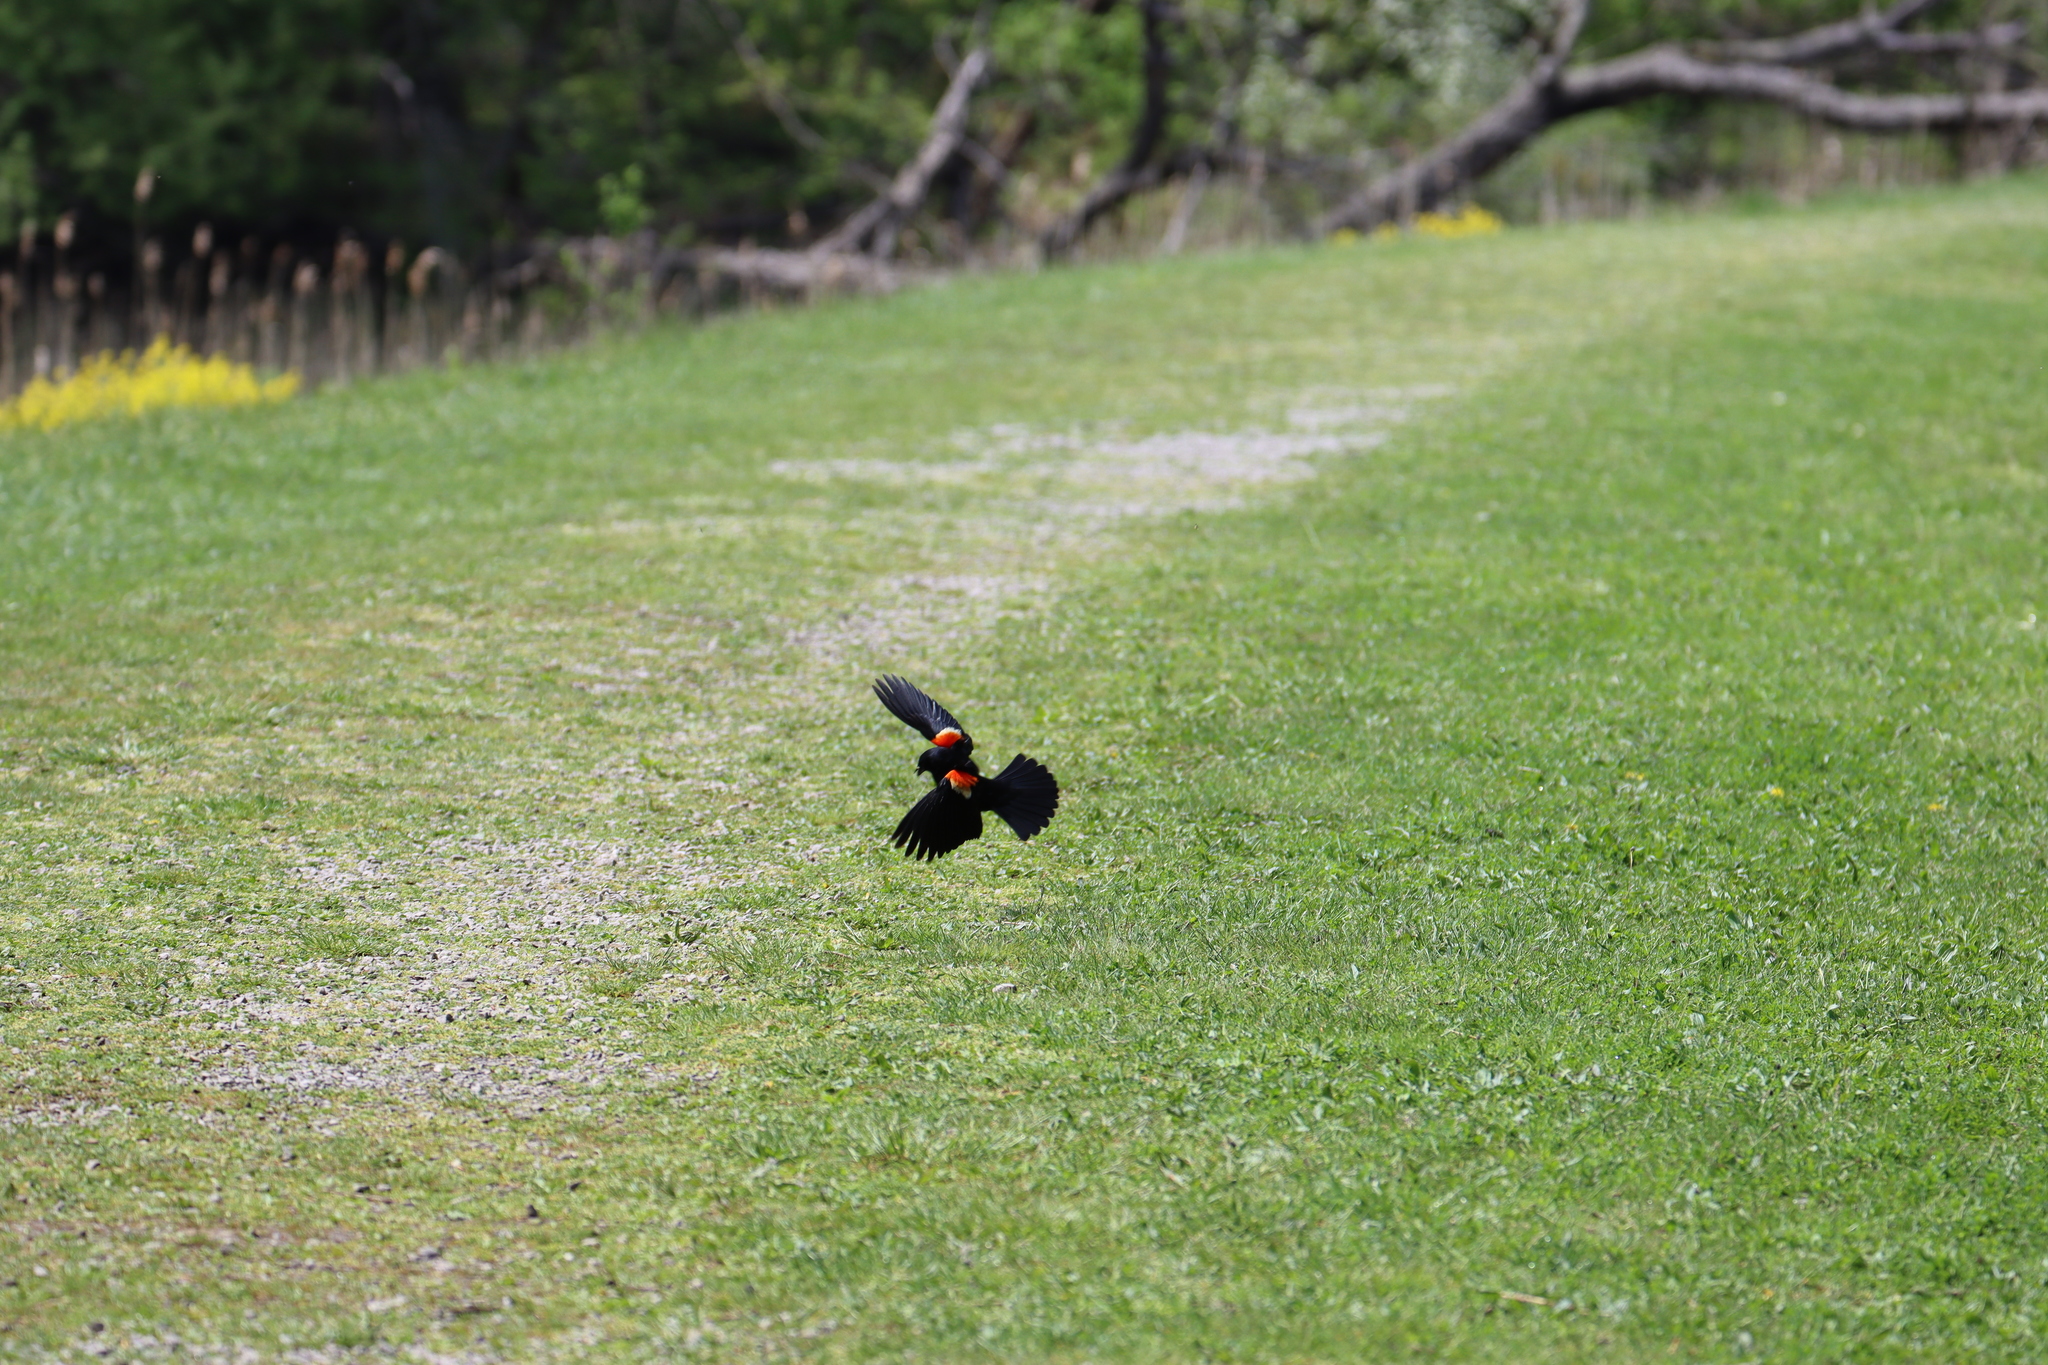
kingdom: Animalia
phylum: Chordata
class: Aves
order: Passeriformes
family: Icteridae
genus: Agelaius
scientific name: Agelaius phoeniceus
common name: Red-winged blackbird
